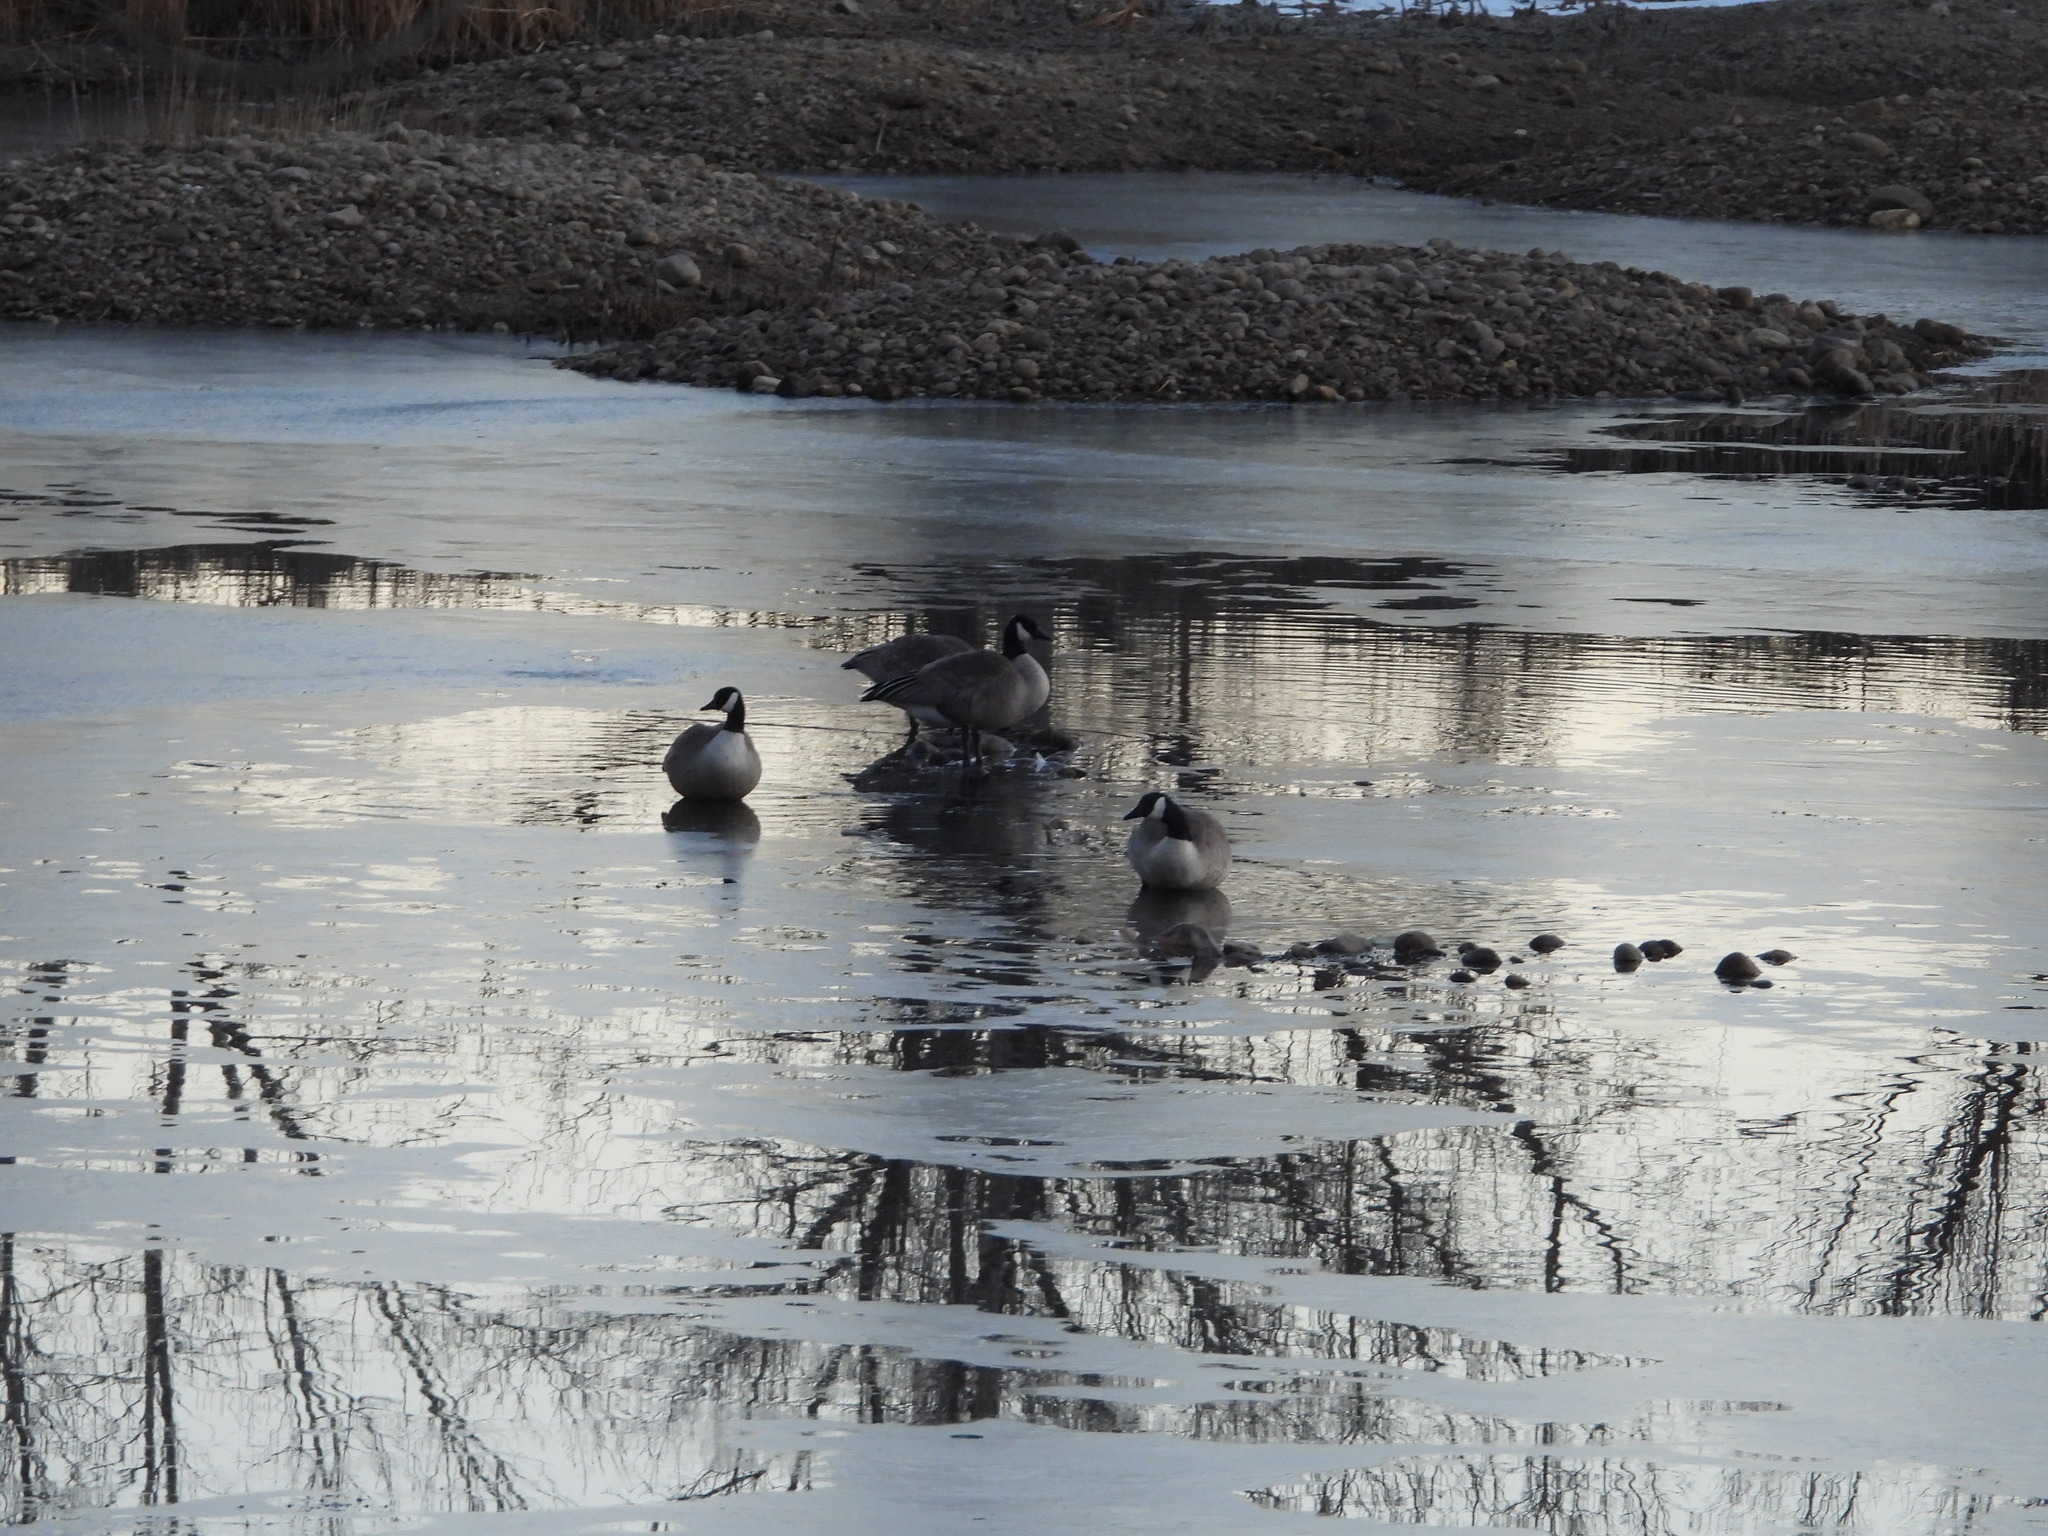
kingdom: Animalia
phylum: Chordata
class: Aves
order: Anseriformes
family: Anatidae
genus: Branta
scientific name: Branta canadensis
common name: Canada goose
